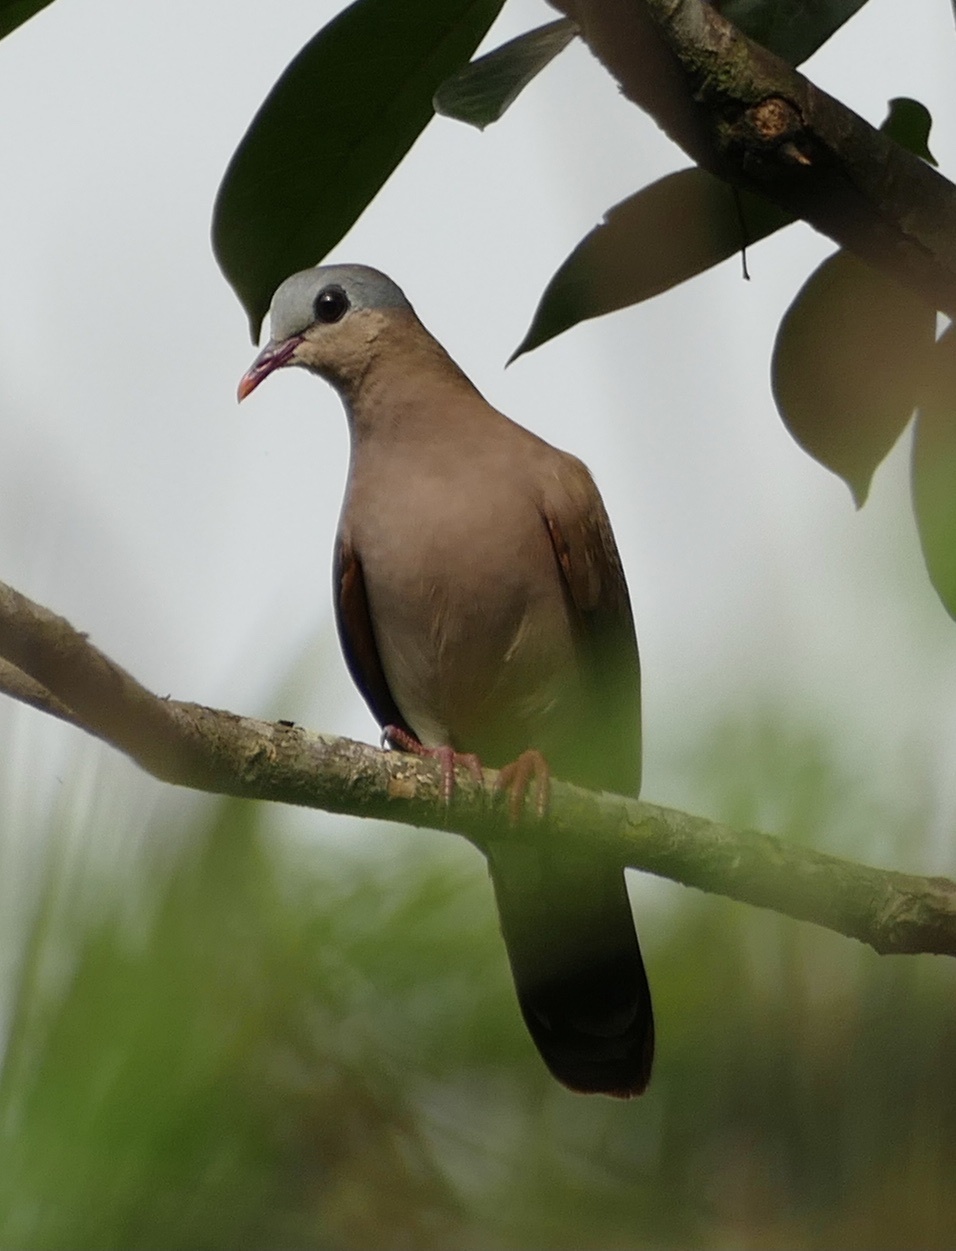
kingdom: Animalia
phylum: Chordata
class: Aves
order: Columbiformes
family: Columbidae
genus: Turtur
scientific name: Turtur afer
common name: Blue-spotted wood dove
